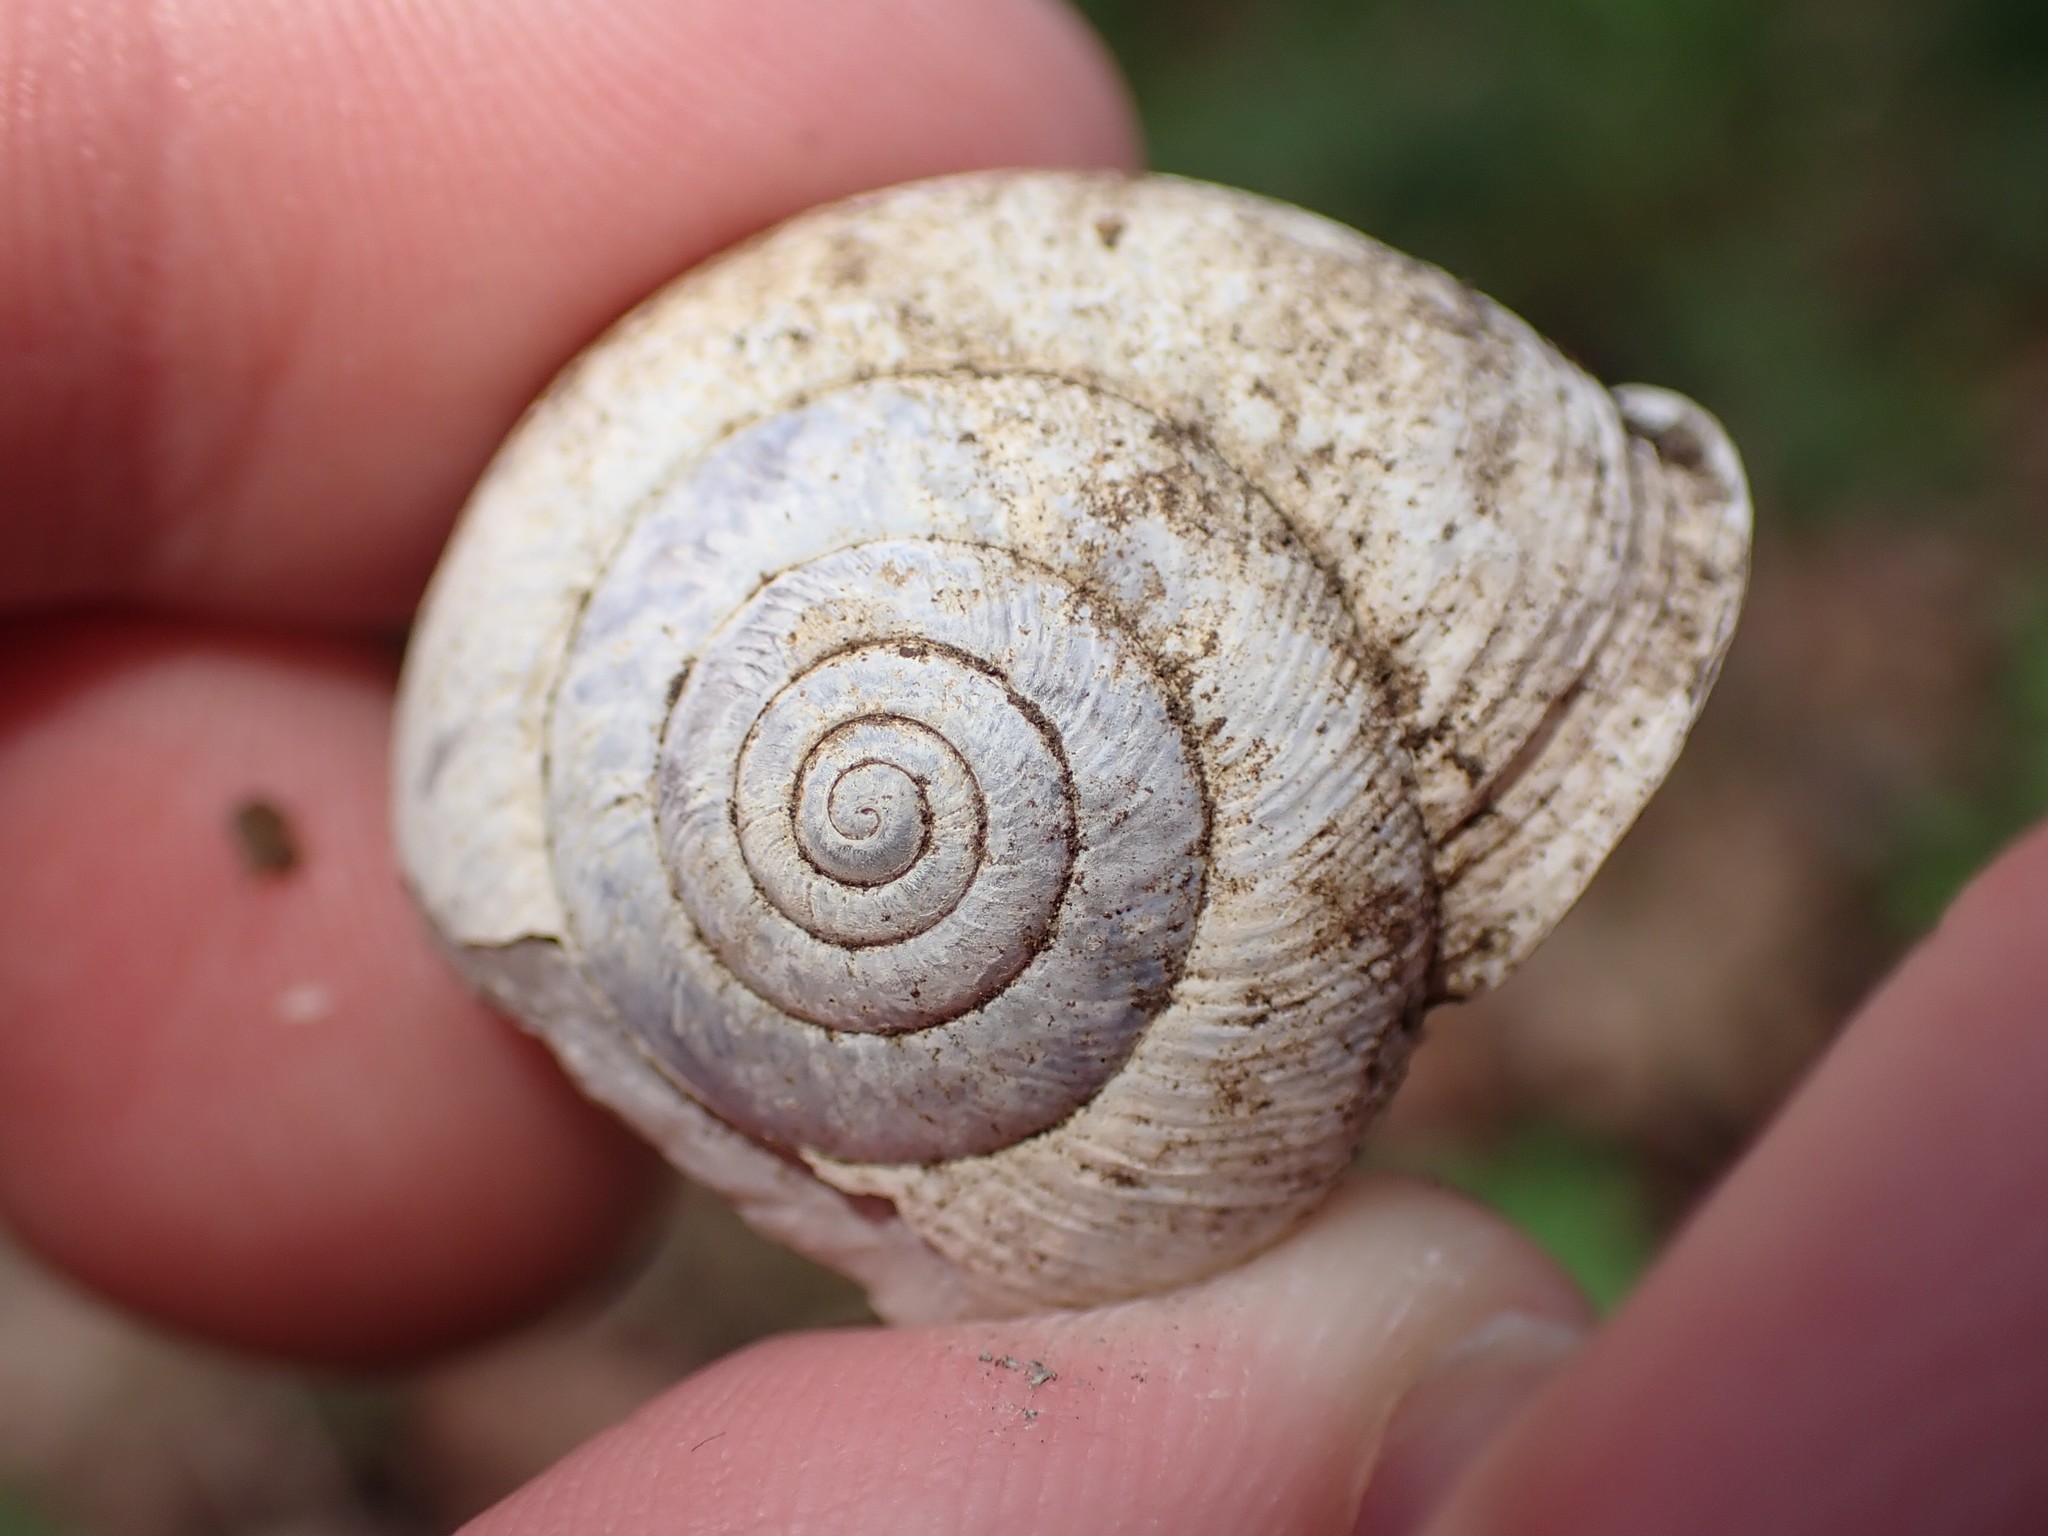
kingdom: Animalia
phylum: Mollusca
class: Gastropoda
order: Stylommatophora
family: Polygyridae
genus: Allogona
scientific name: Allogona townsendiana
